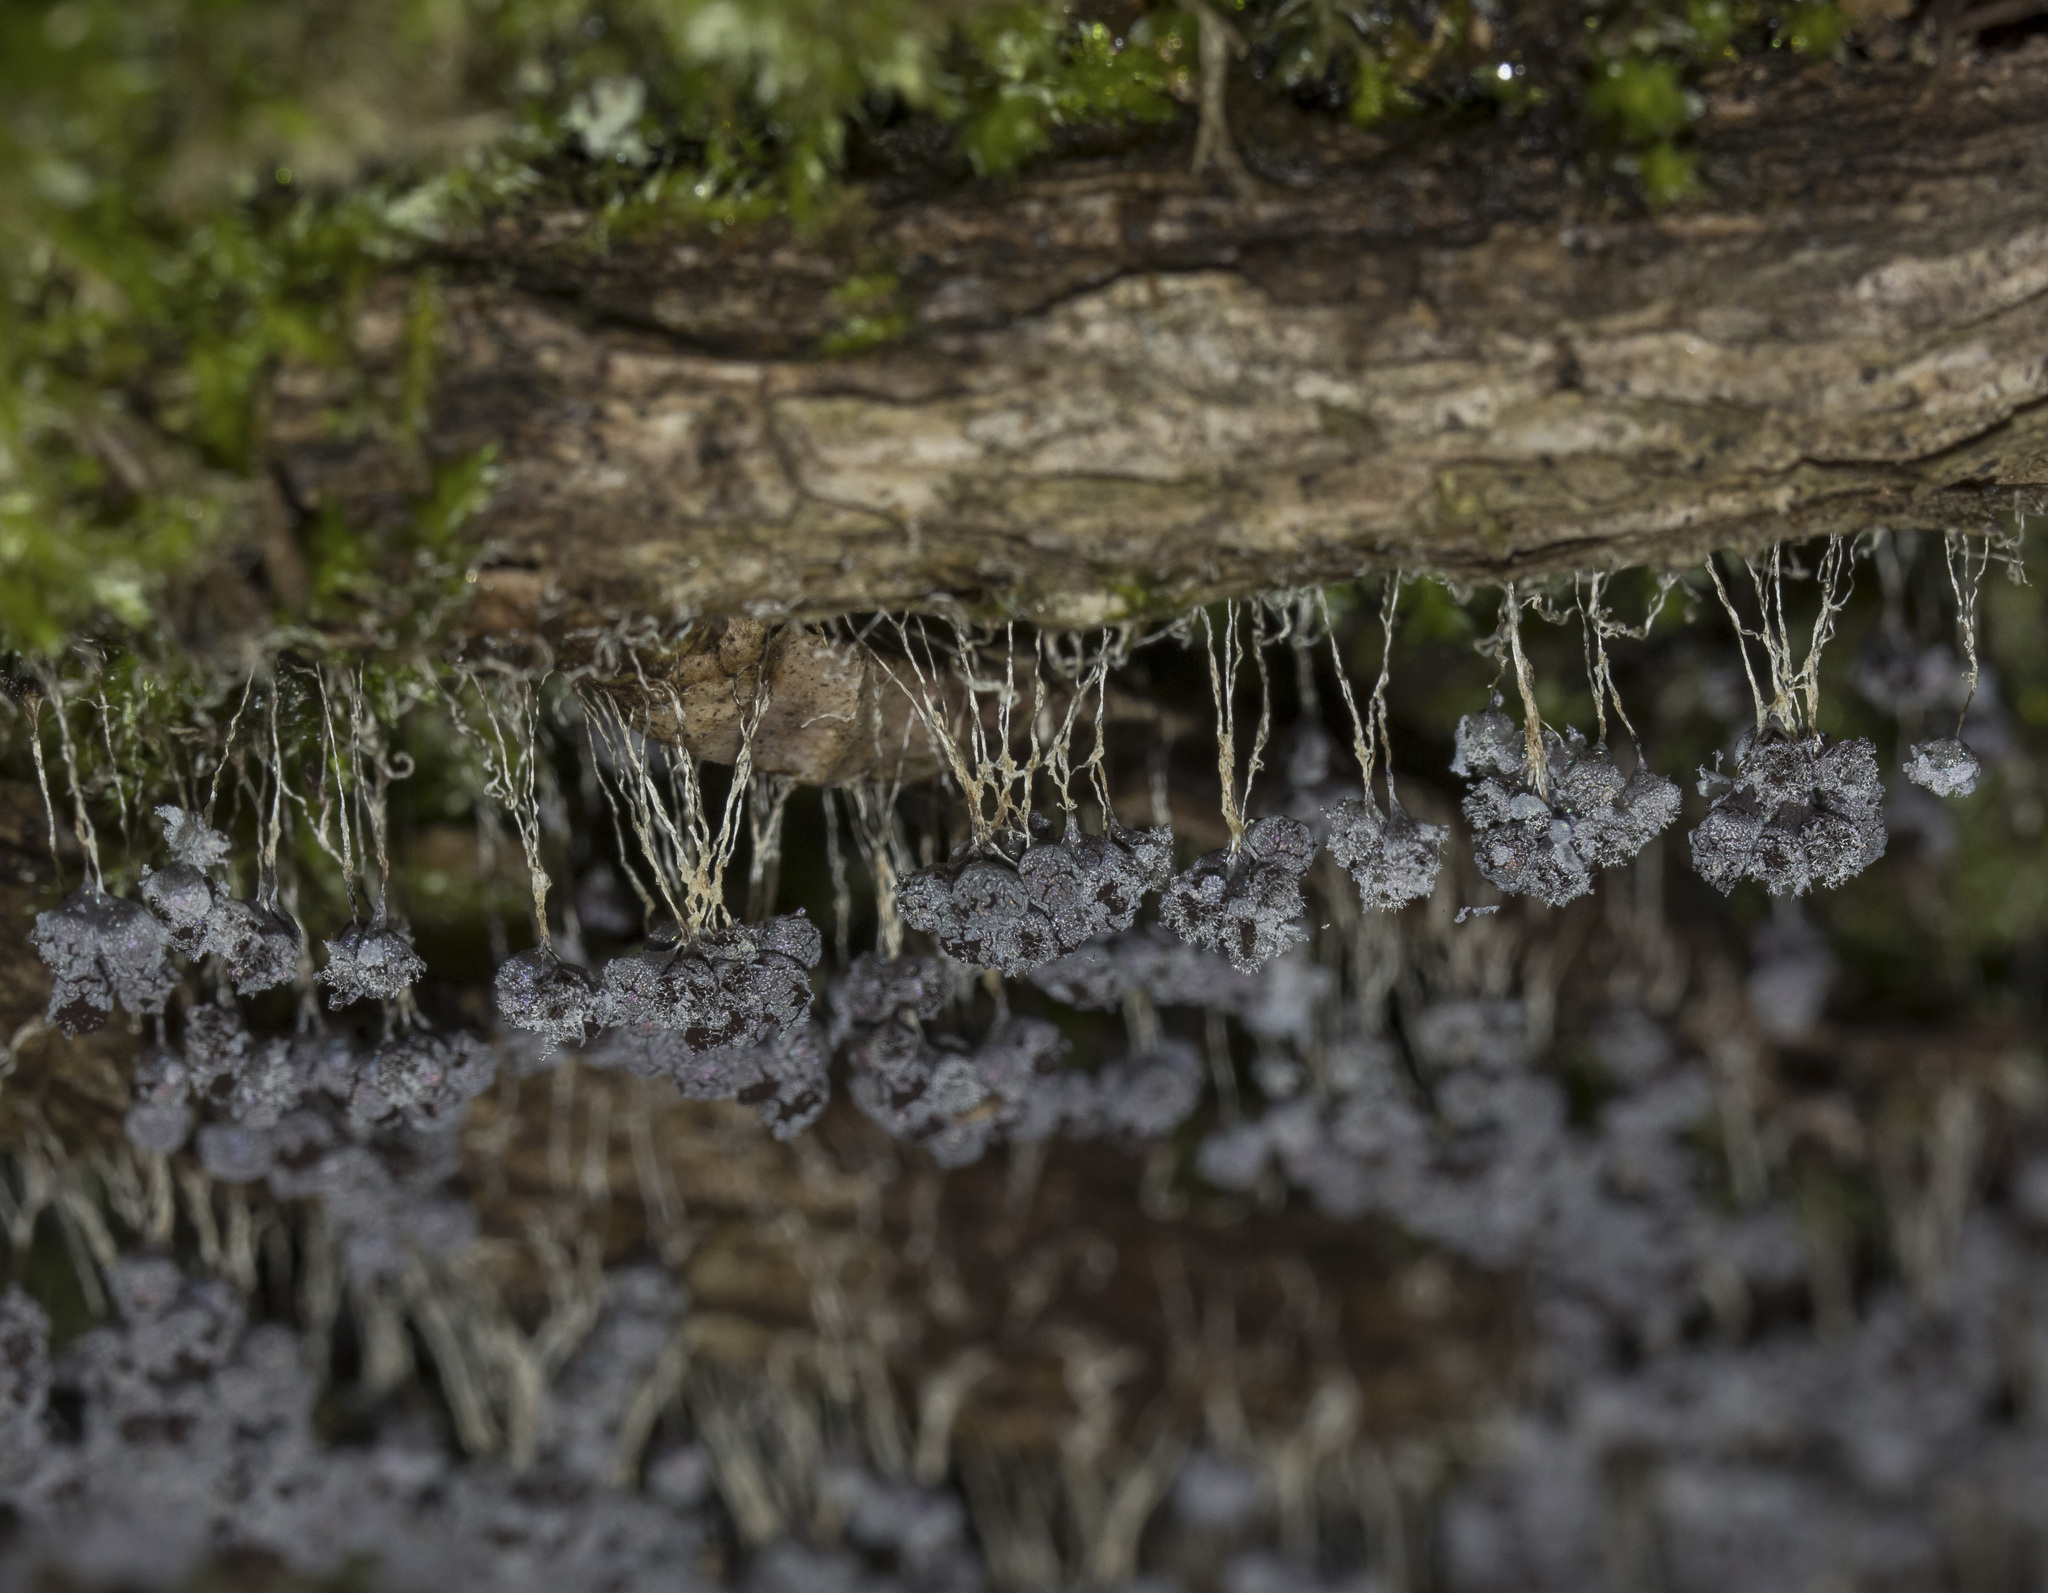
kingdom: Protozoa
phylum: Mycetozoa
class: Myxomycetes
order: Physarales
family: Physaraceae
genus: Badhamia
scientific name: Badhamia utricularis
